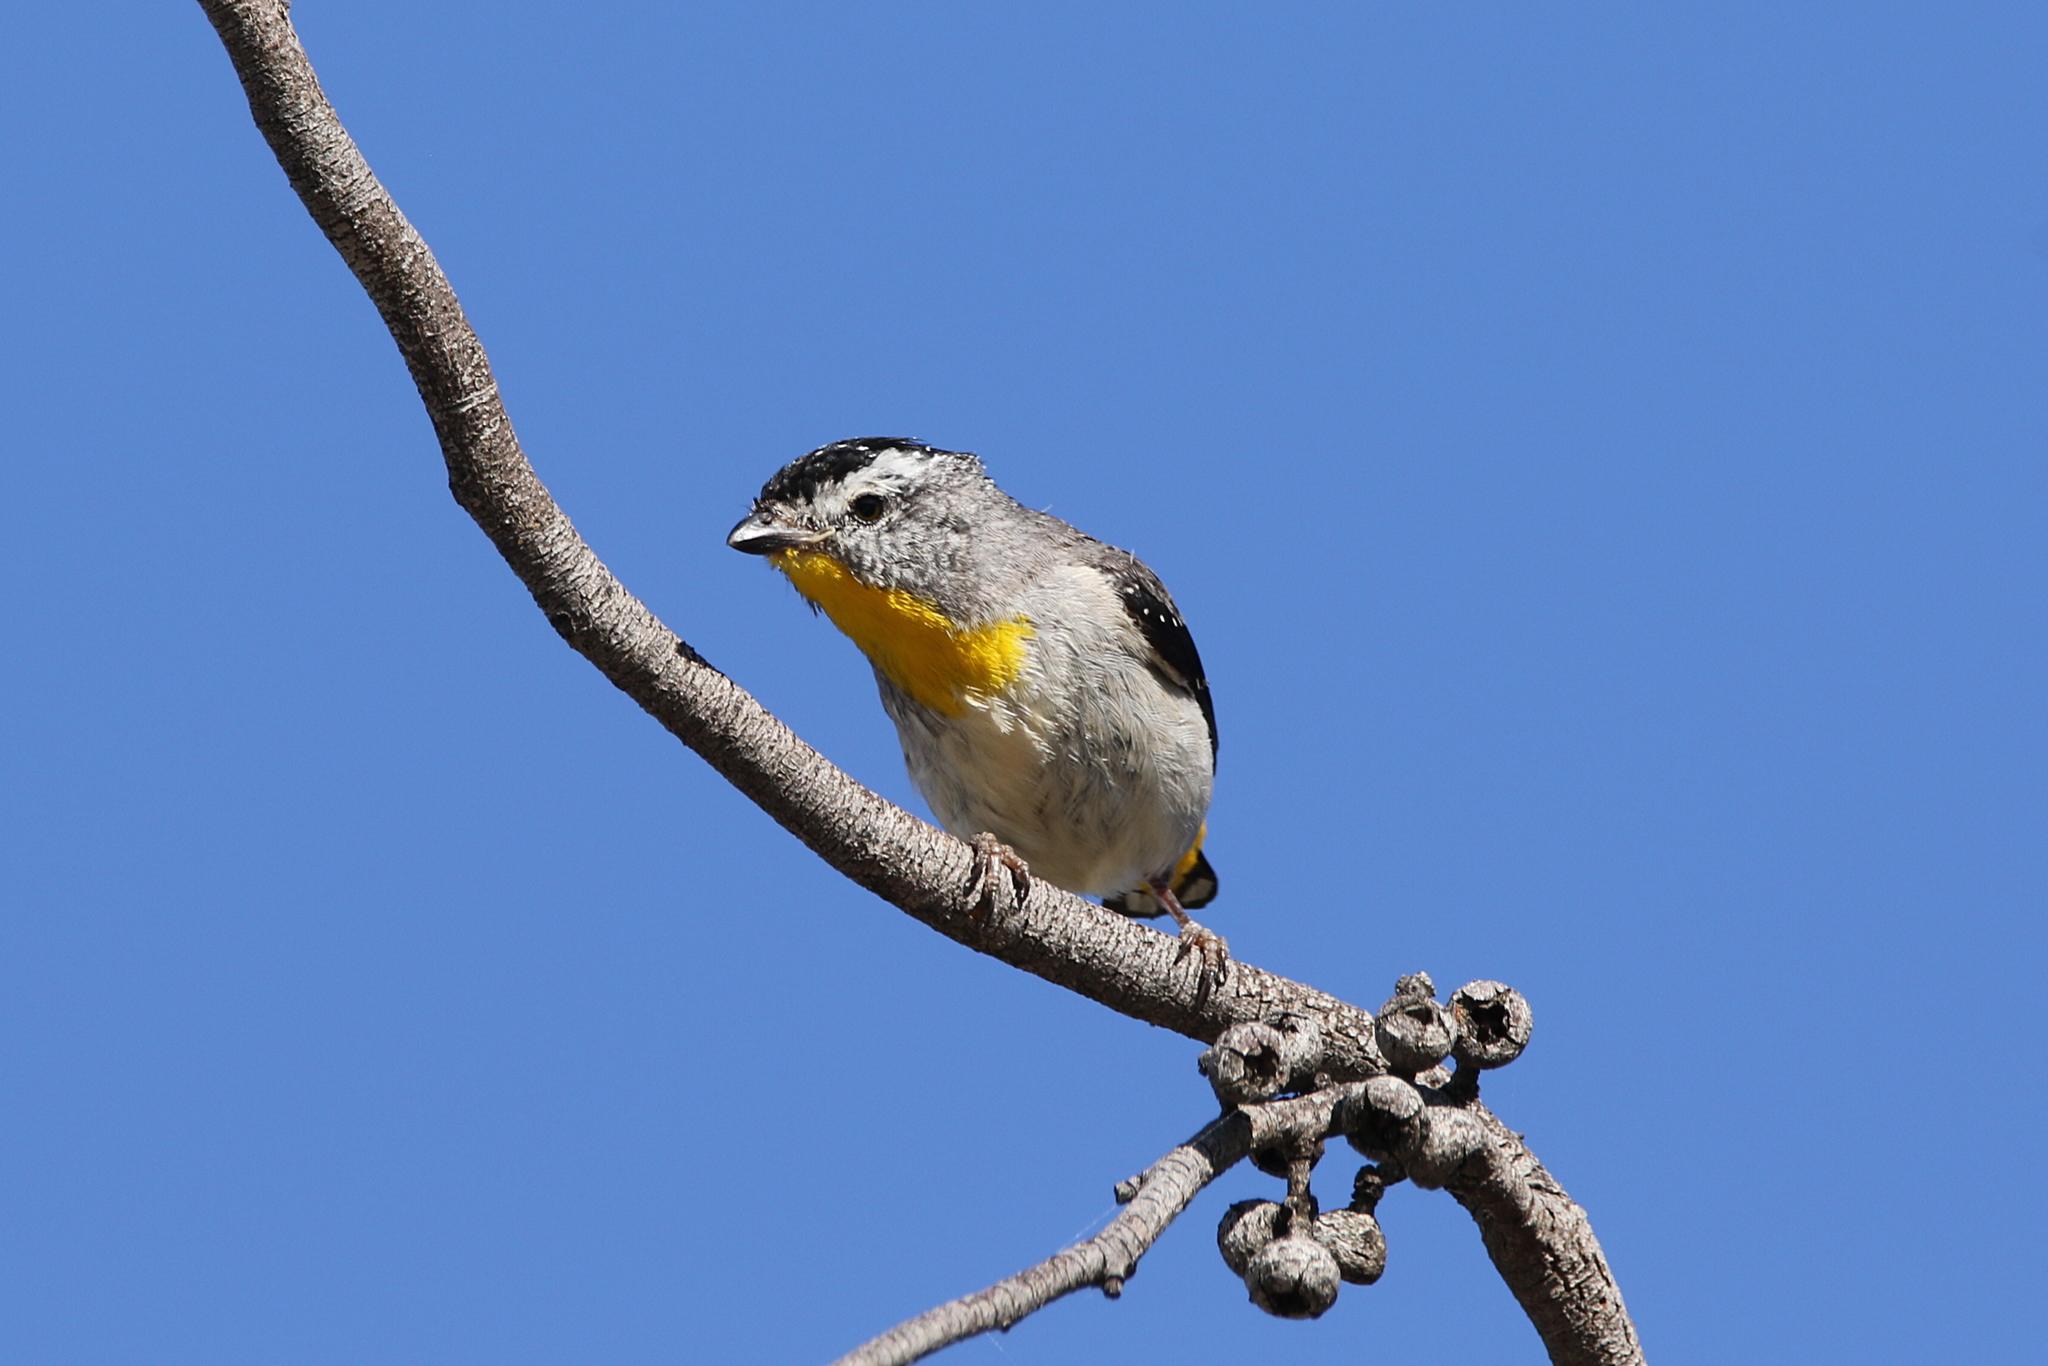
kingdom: Animalia
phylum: Chordata
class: Aves
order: Passeriformes
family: Pardalotidae
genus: Pardalotus
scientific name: Pardalotus punctatus
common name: Spotted pardalote
